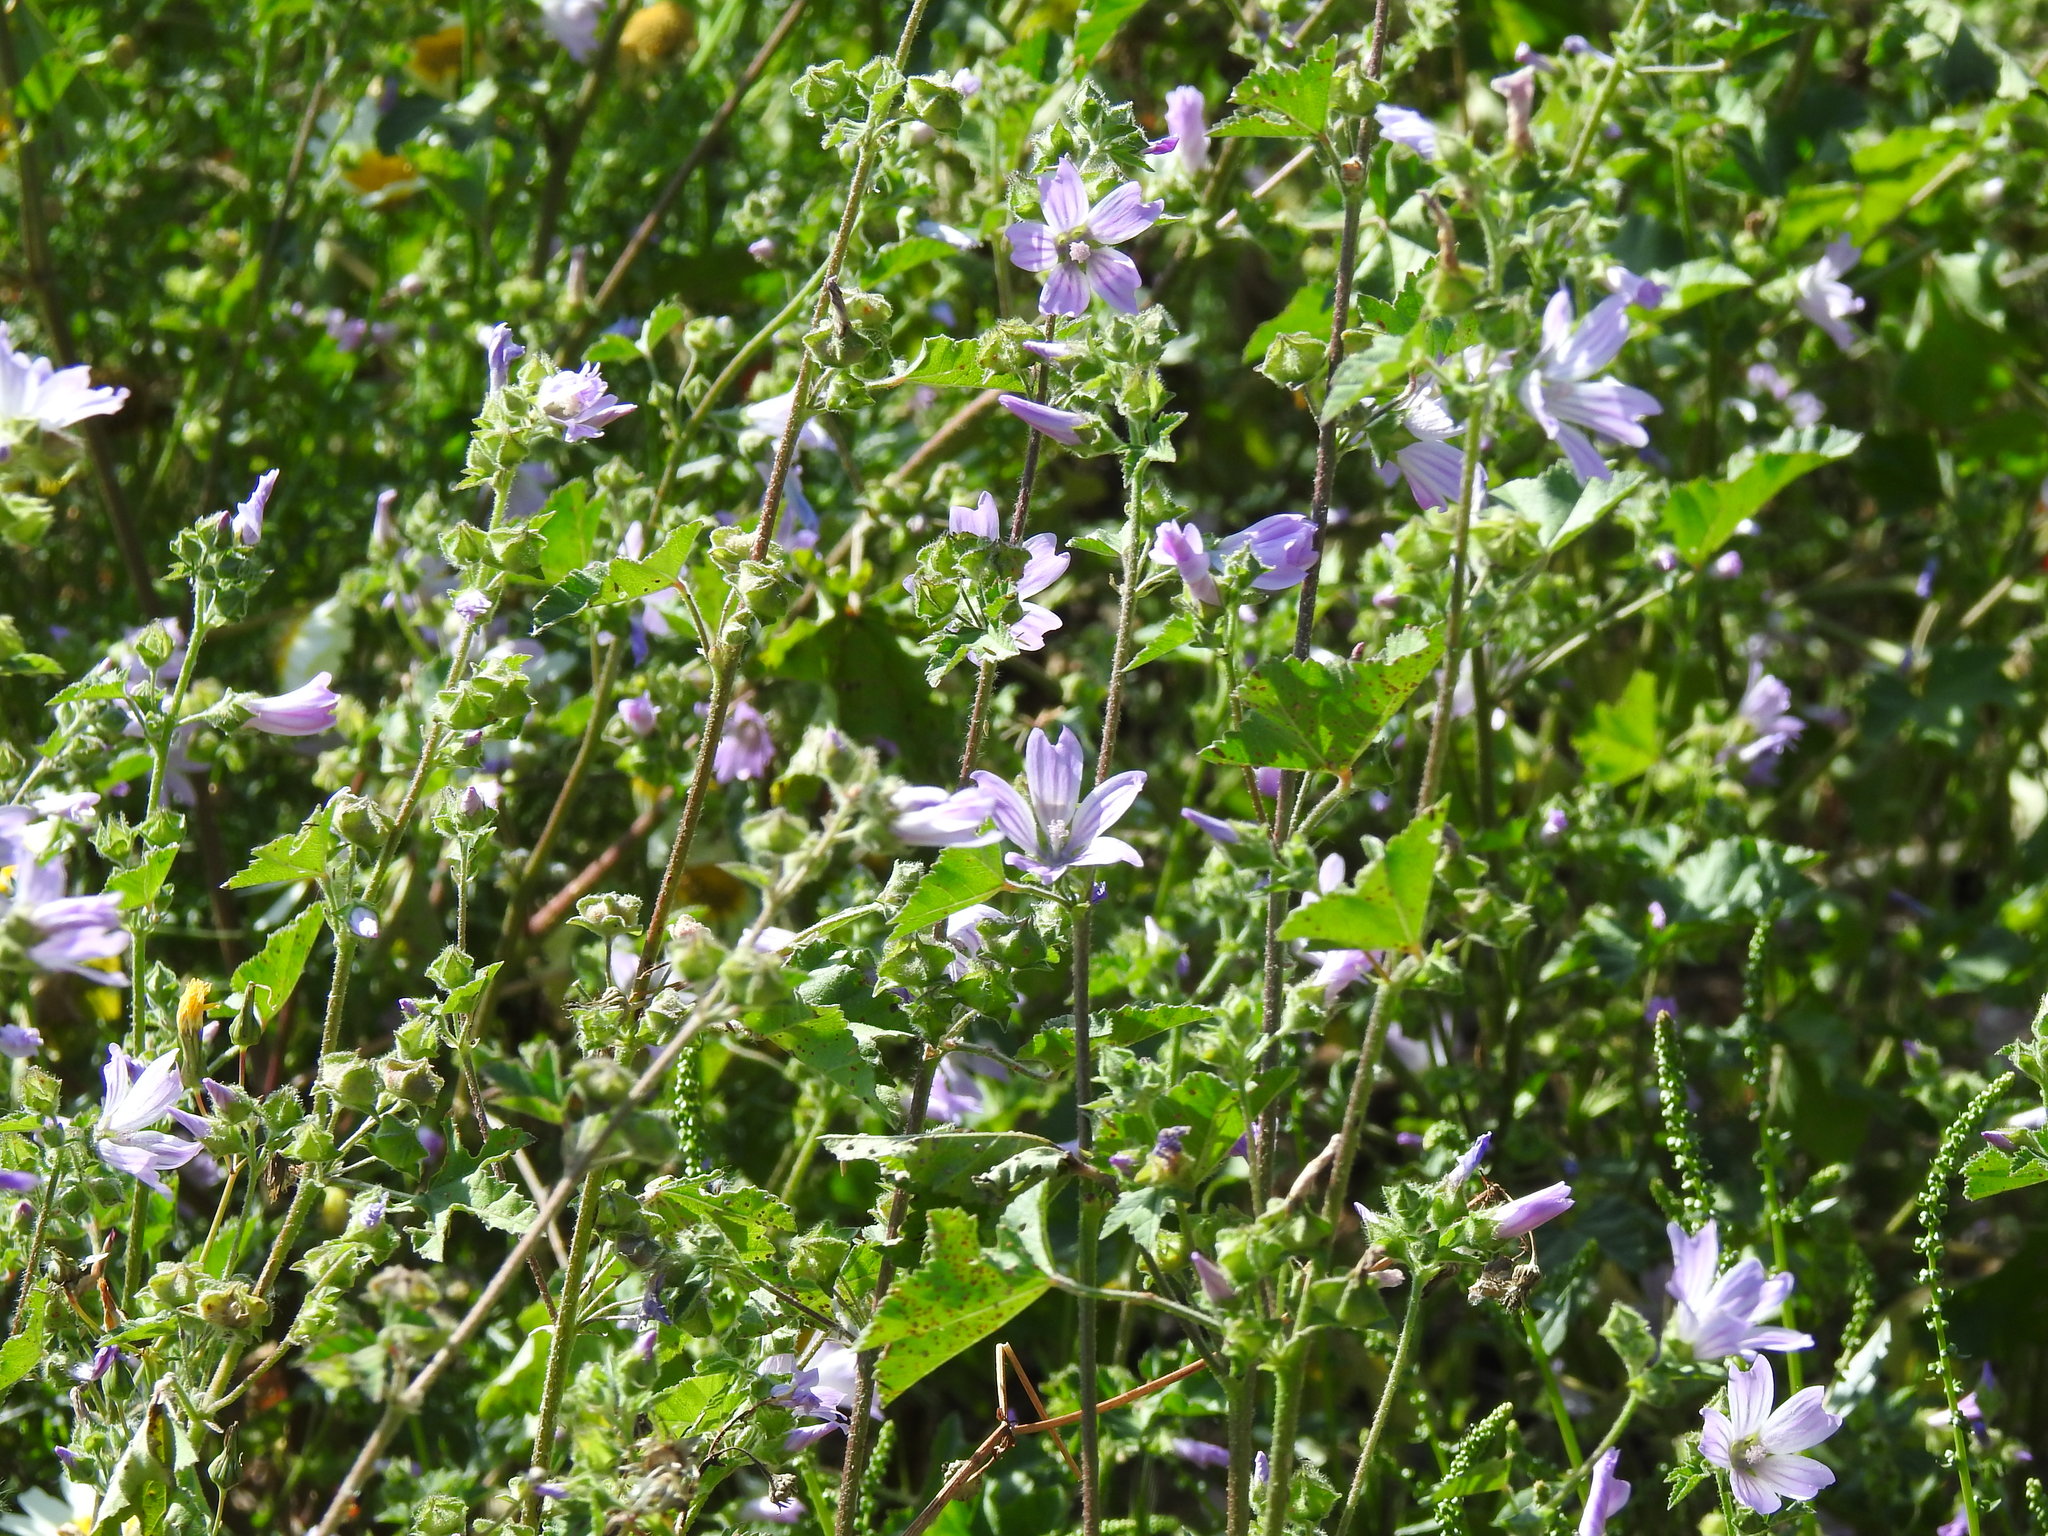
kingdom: Plantae
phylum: Tracheophyta
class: Magnoliopsida
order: Malvales
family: Malvaceae
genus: Malva
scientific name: Malva multiflora
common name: Cheeseweed
